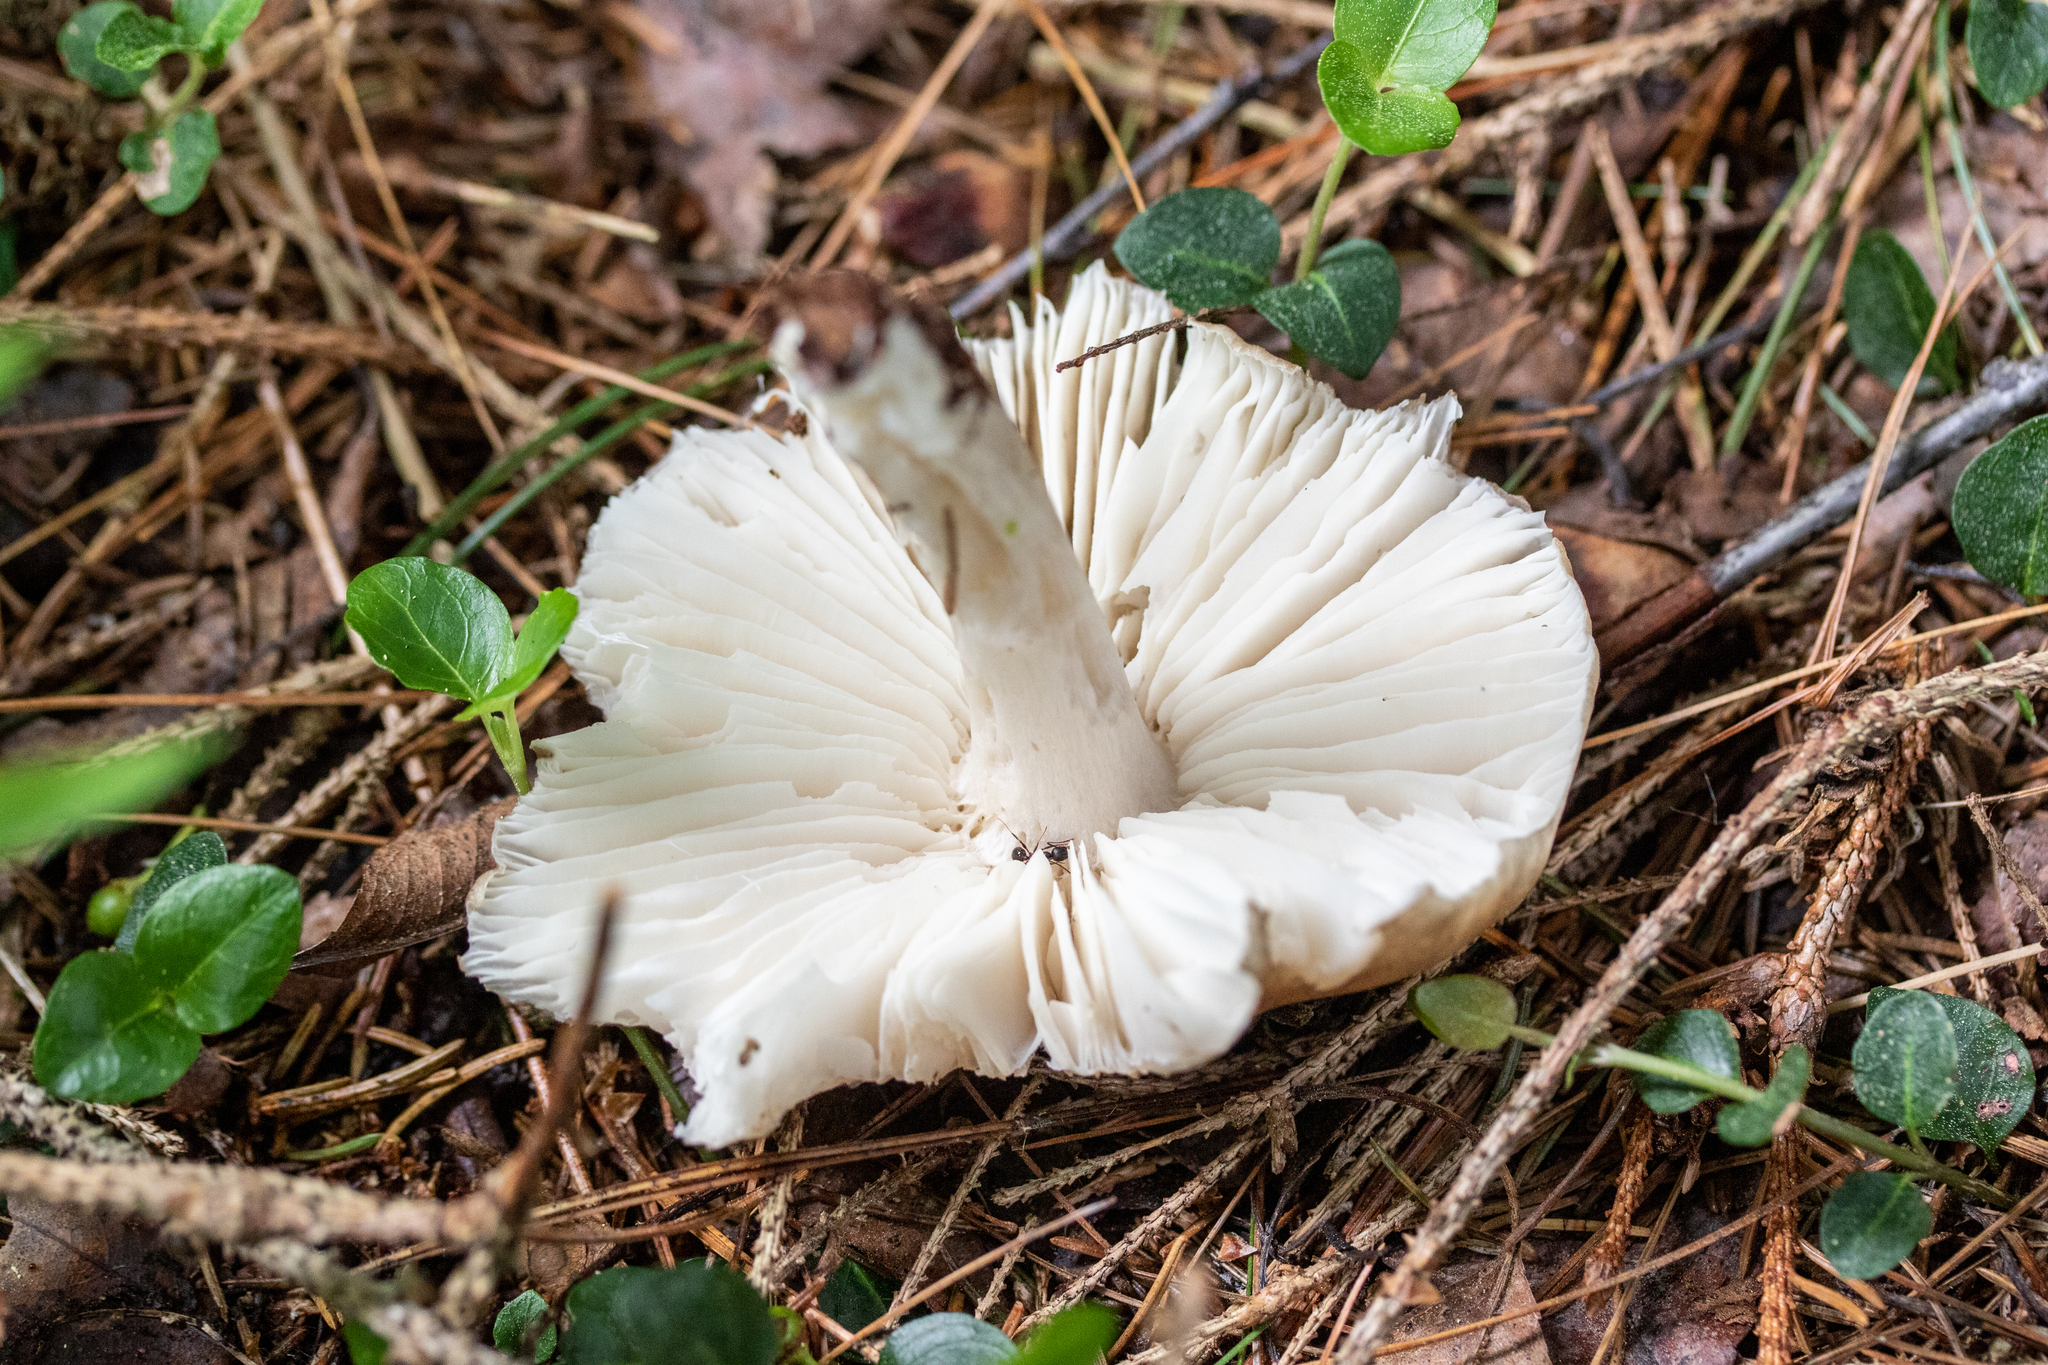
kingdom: Fungi
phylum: Basidiomycota
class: Agaricomycetes
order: Agaricales
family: Tricholomataceae
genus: Megacollybia
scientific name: Megacollybia rodmanii
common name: Eastern american platterful mushroom
